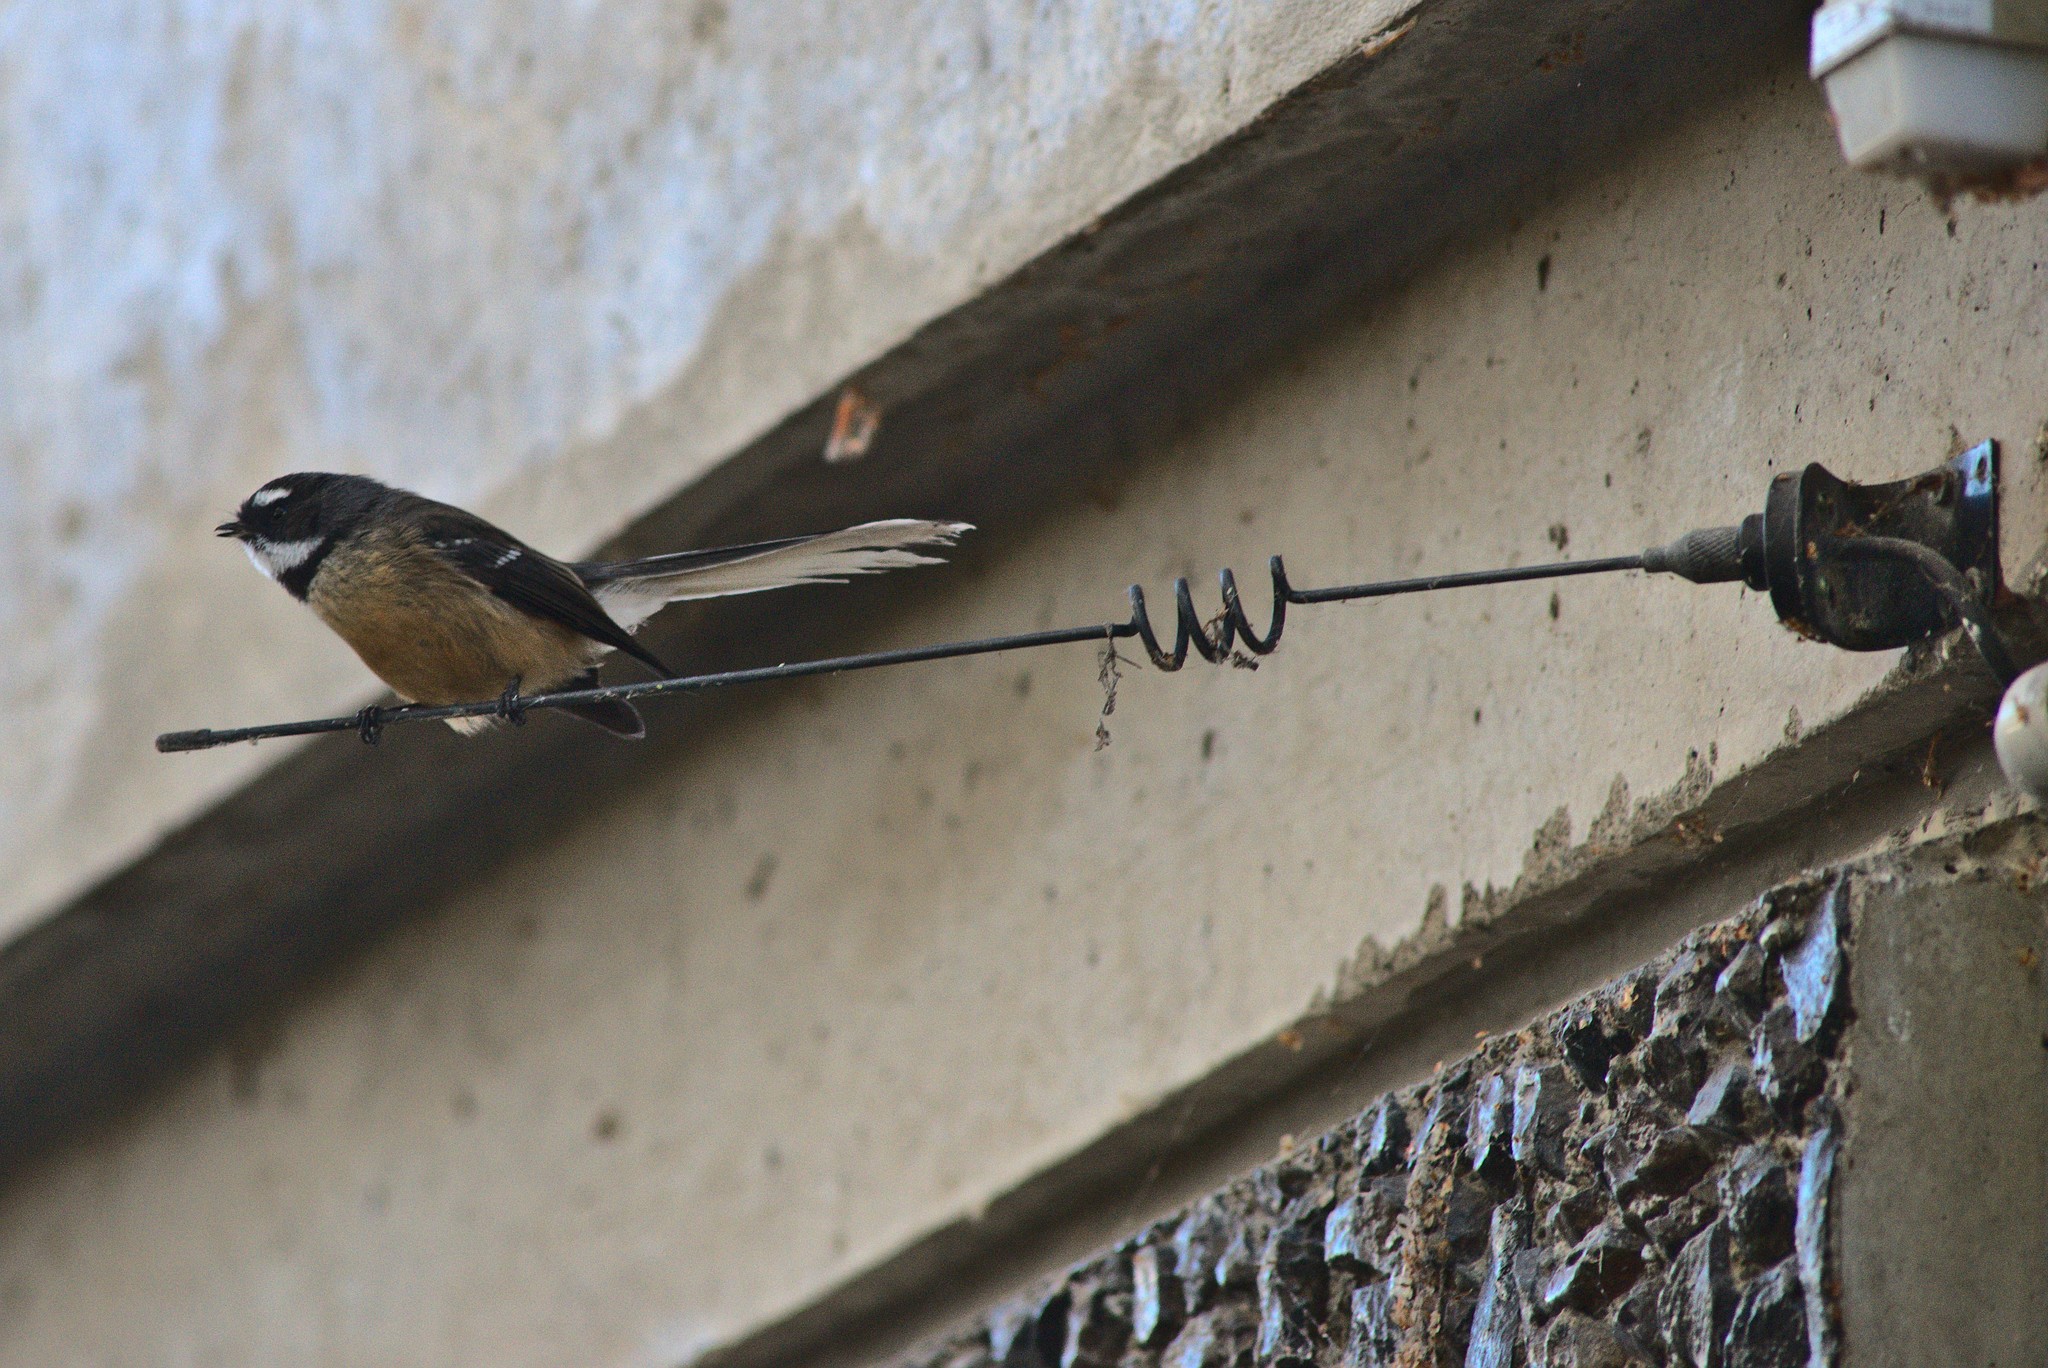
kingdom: Animalia
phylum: Chordata
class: Aves
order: Passeriformes
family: Rhipiduridae
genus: Rhipidura
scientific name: Rhipidura fuliginosa
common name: New zealand fantail
